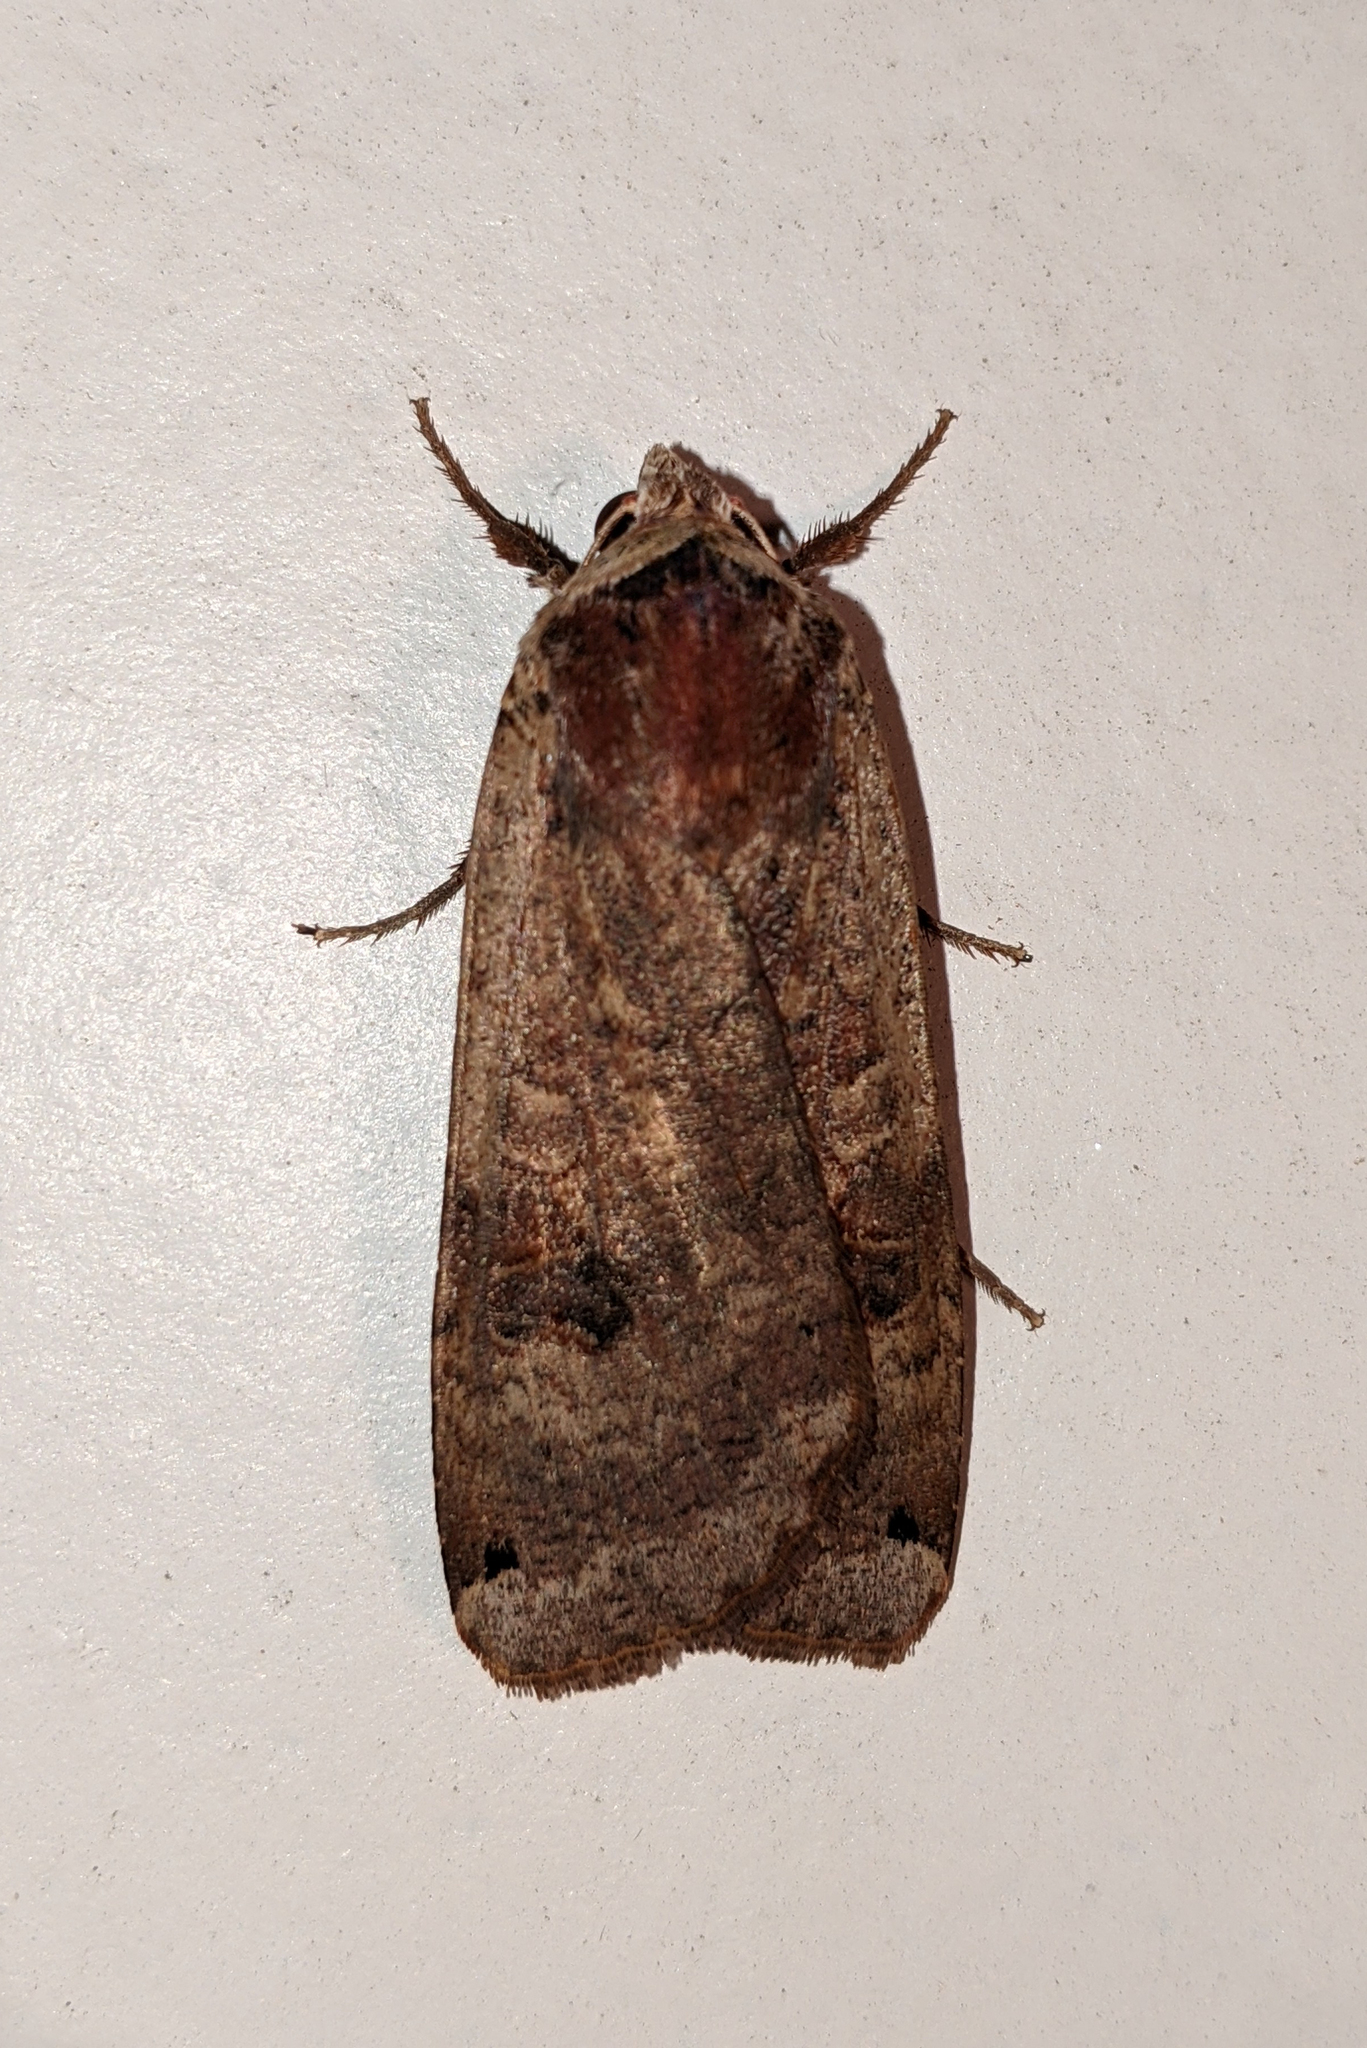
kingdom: Animalia
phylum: Arthropoda
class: Insecta
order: Lepidoptera
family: Noctuidae
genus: Noctua
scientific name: Noctua pronuba
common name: Large yellow underwing
